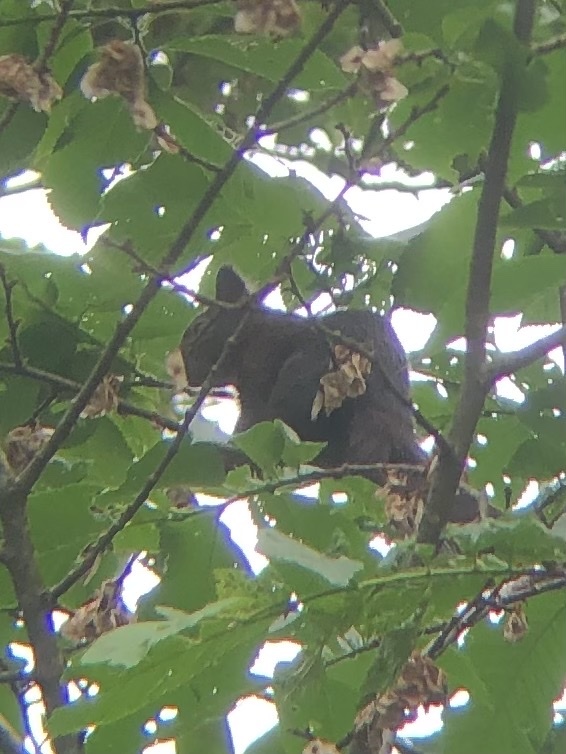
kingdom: Animalia
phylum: Chordata
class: Mammalia
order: Rodentia
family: Sciuridae
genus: Sciurus
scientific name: Sciurus vulgaris
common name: Eurasian red squirrel
